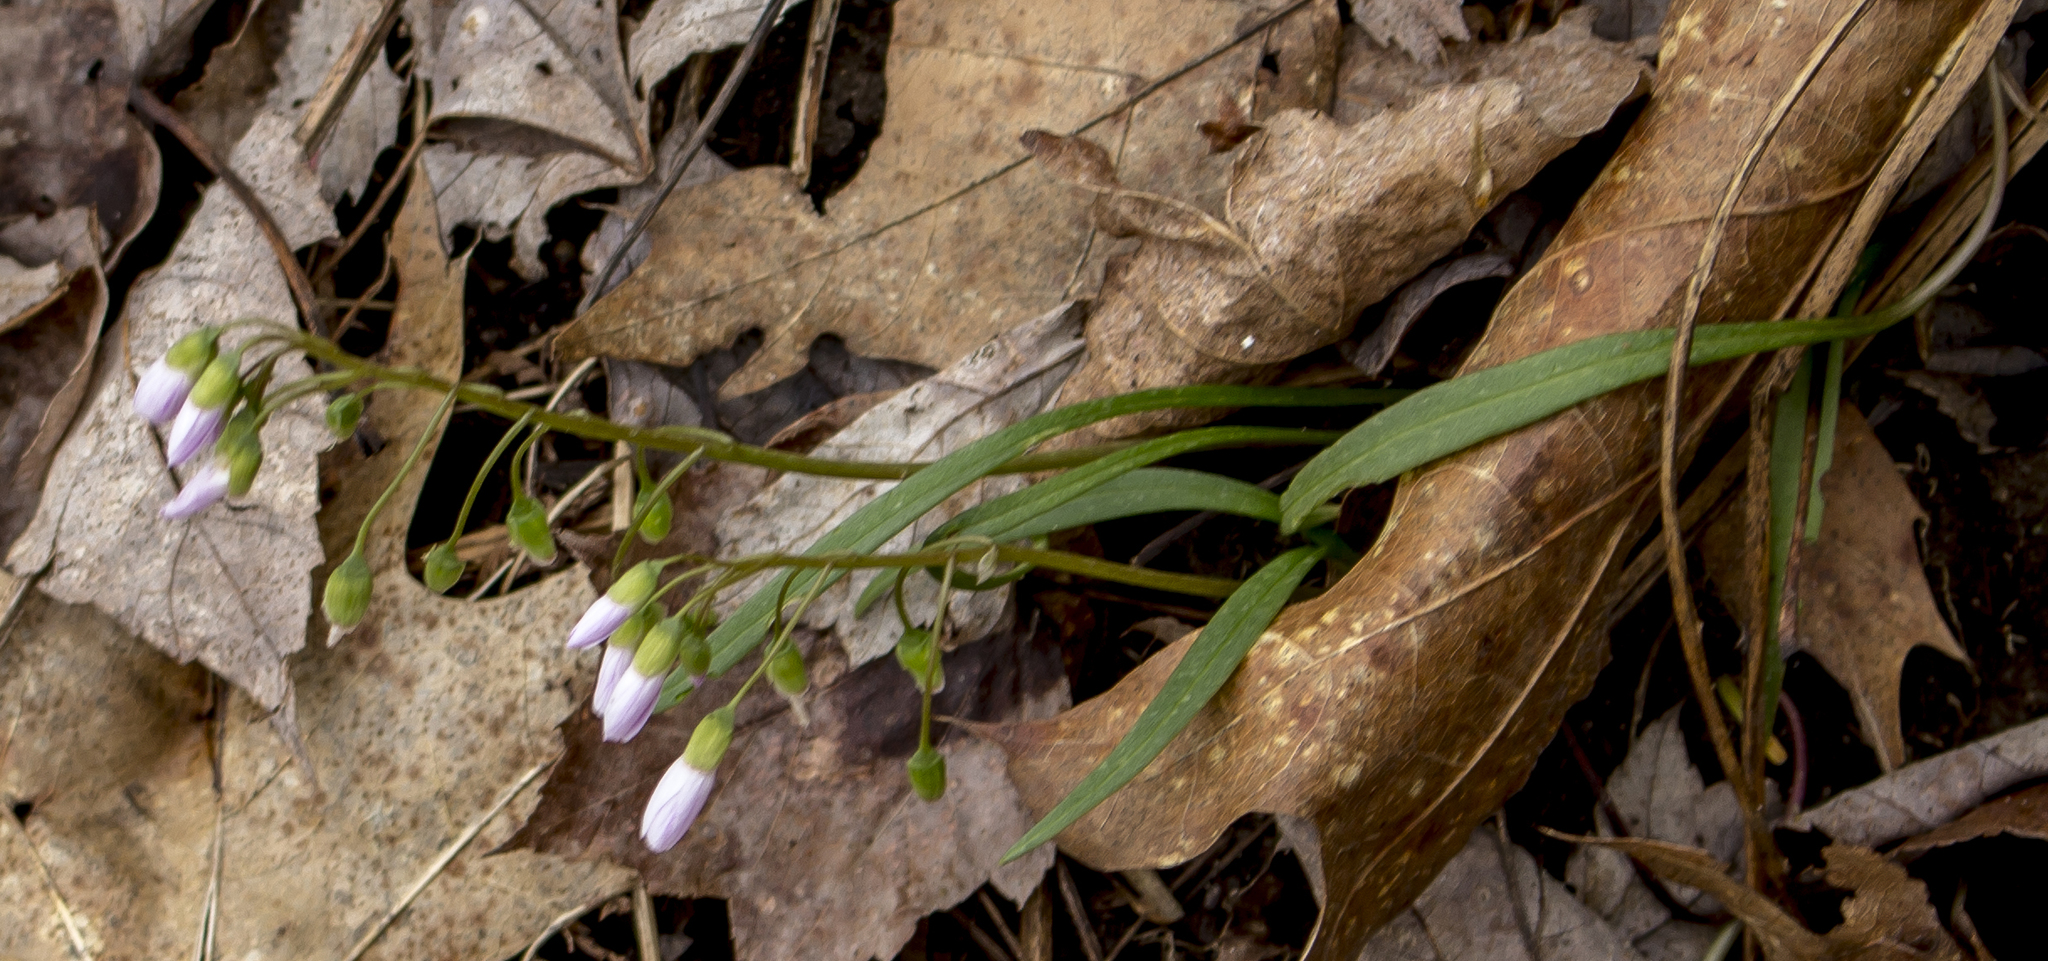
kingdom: Plantae
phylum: Tracheophyta
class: Magnoliopsida
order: Caryophyllales
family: Montiaceae
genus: Claytonia
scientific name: Claytonia virginica
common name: Virginia springbeauty
